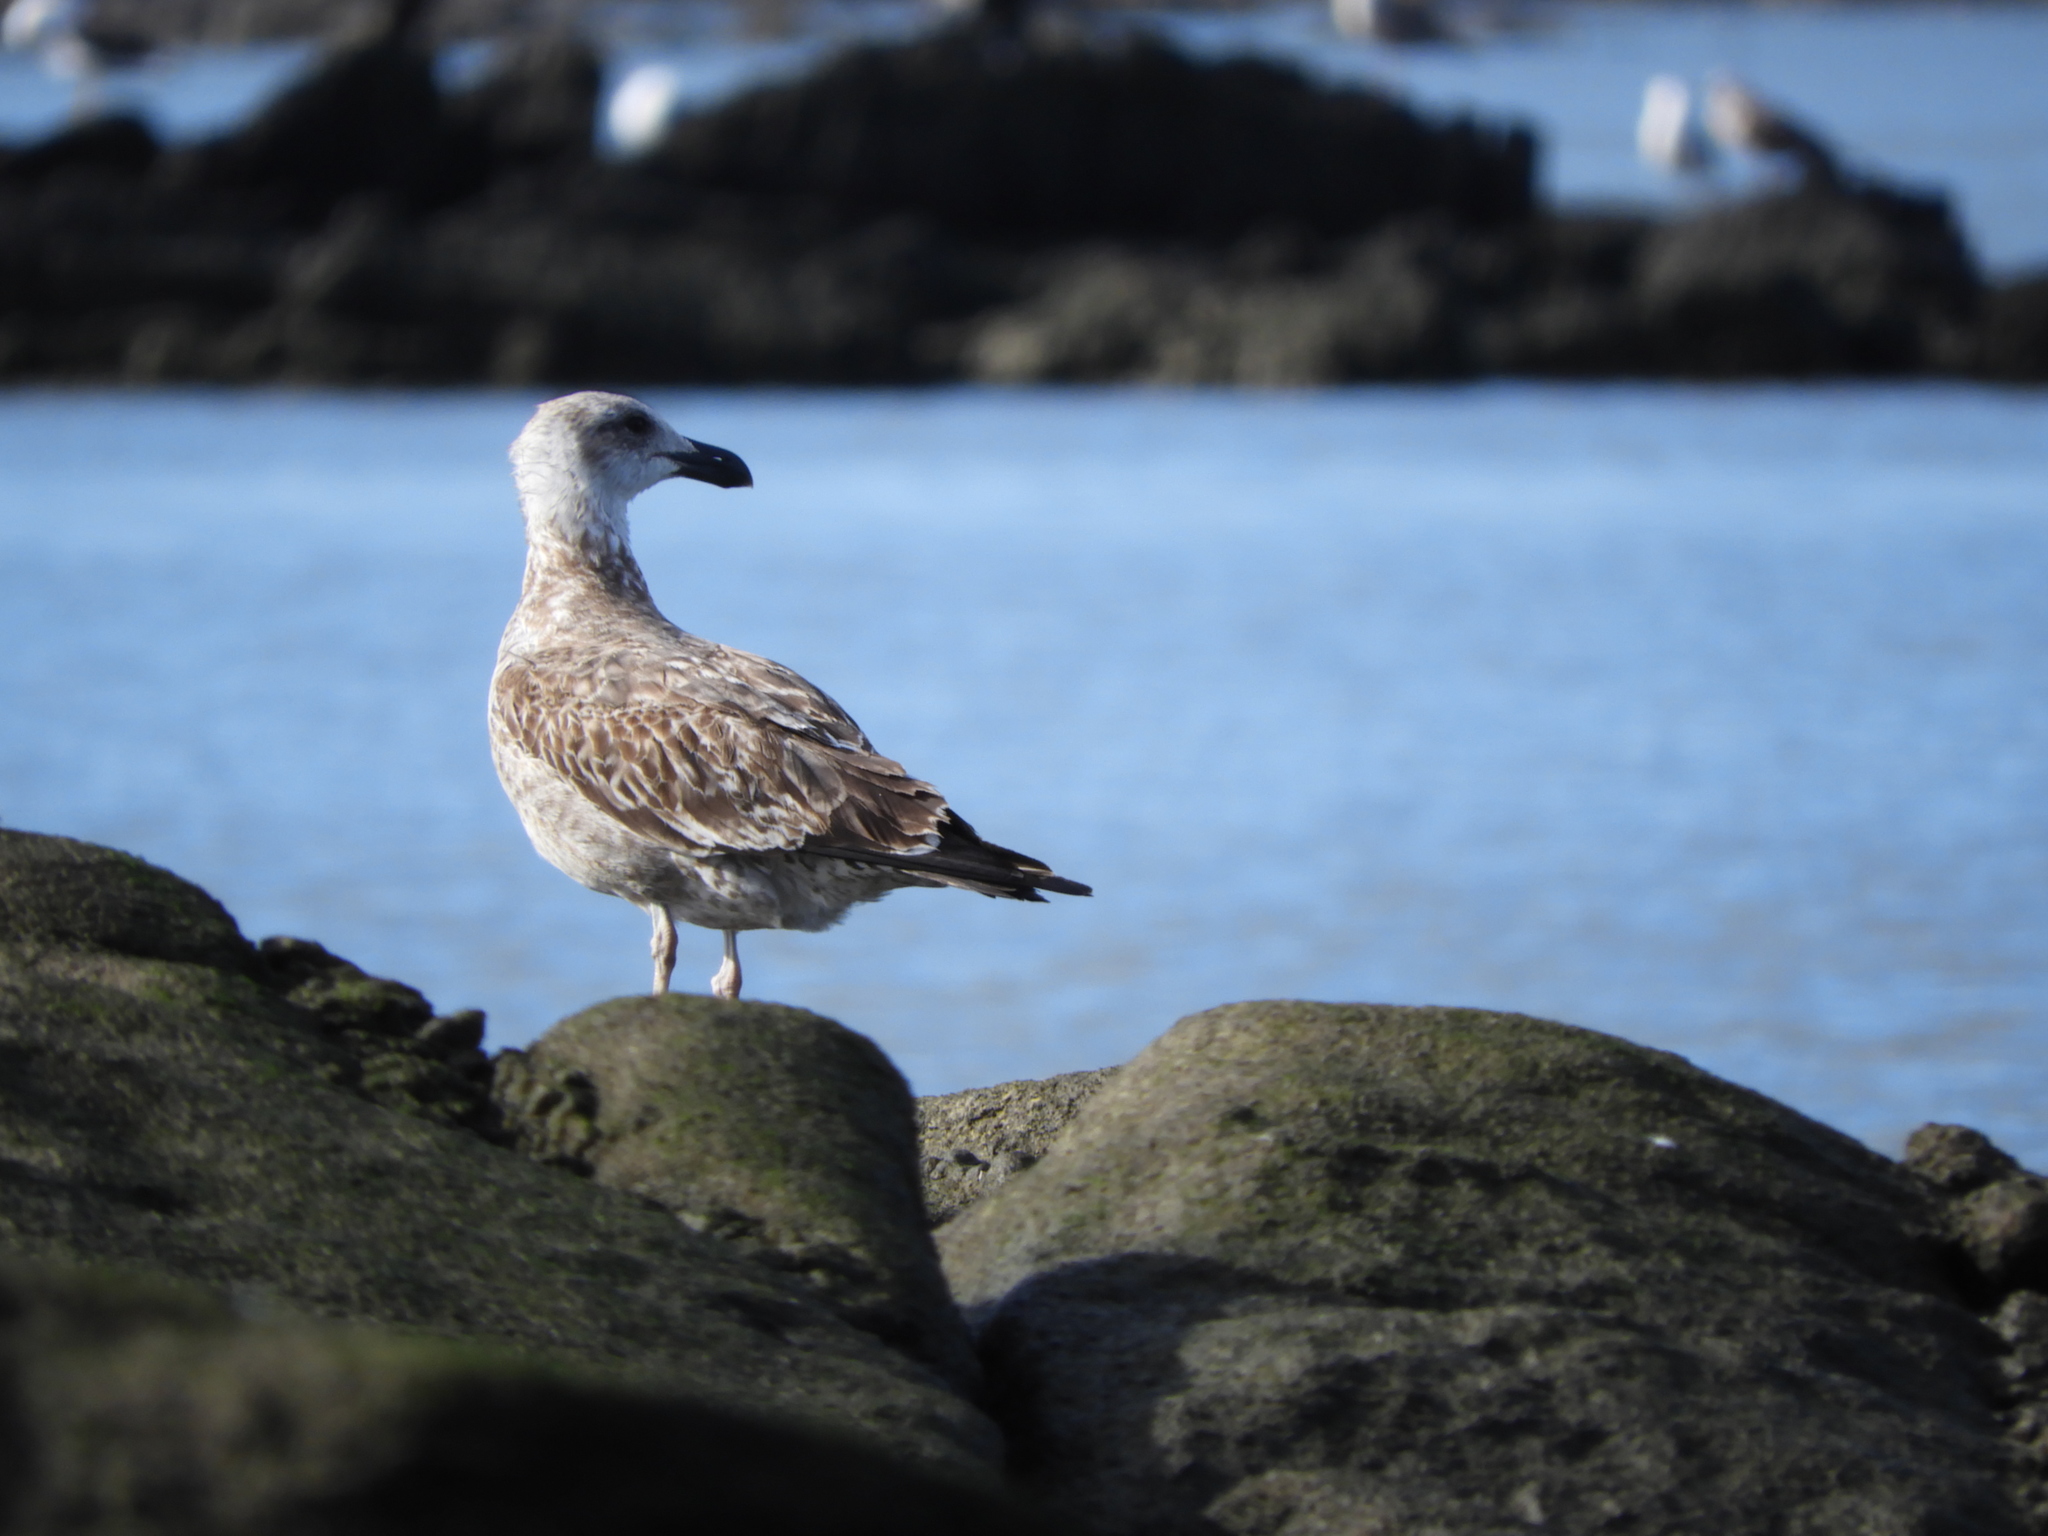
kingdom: Animalia
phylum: Chordata
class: Aves
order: Charadriiformes
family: Laridae
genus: Larus
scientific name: Larus dominicanus
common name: Kelp gull
